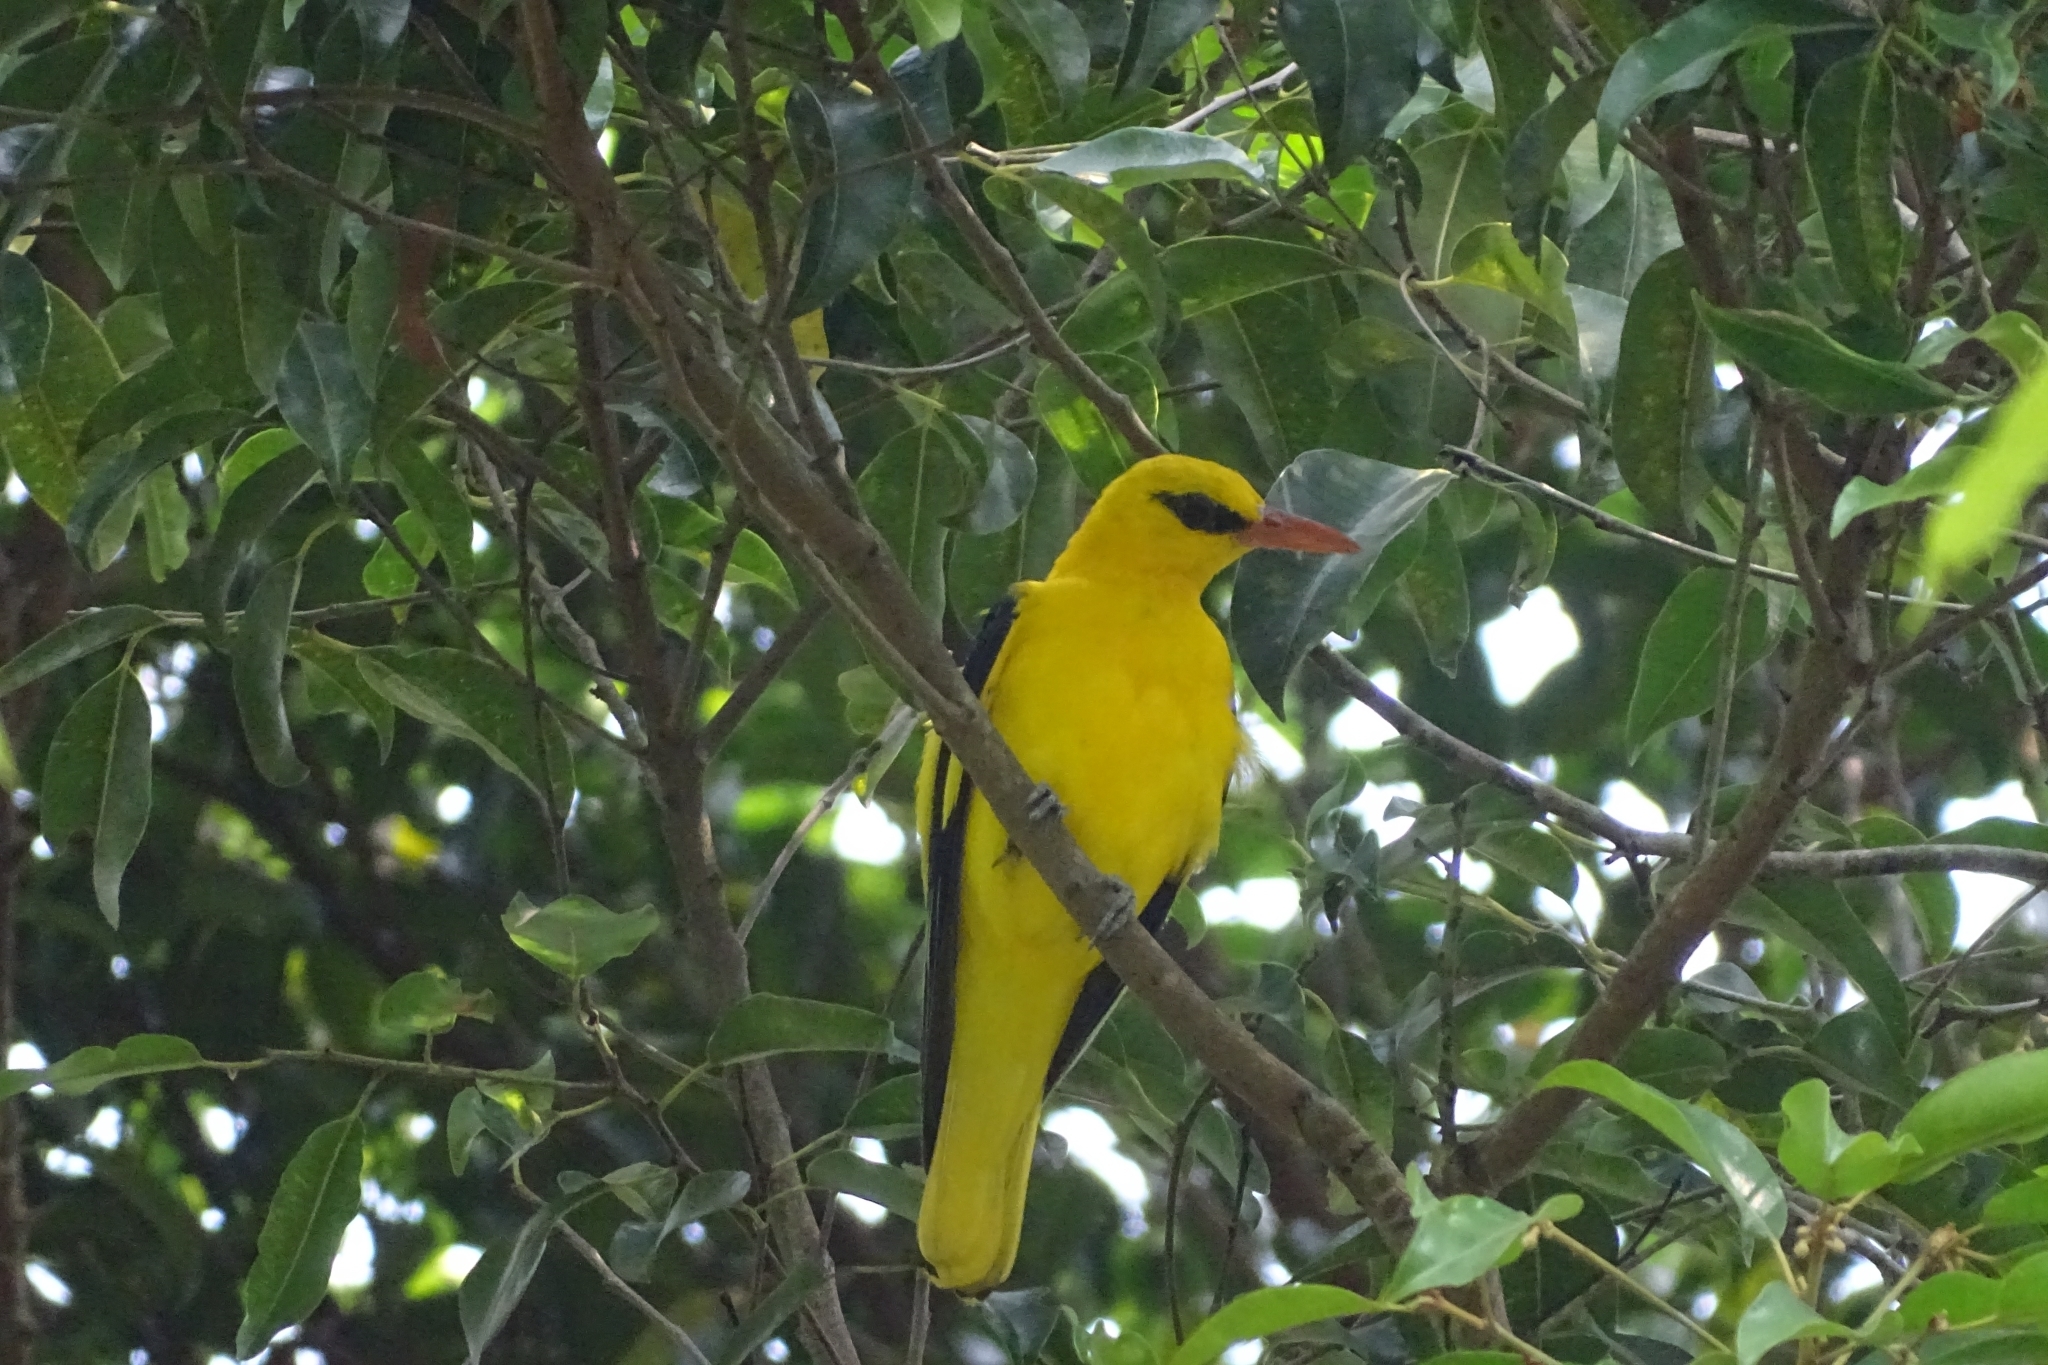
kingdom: Animalia
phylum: Chordata
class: Aves
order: Passeriformes
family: Oriolidae
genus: Oriolus
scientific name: Oriolus kundoo
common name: Indian golden oriole
